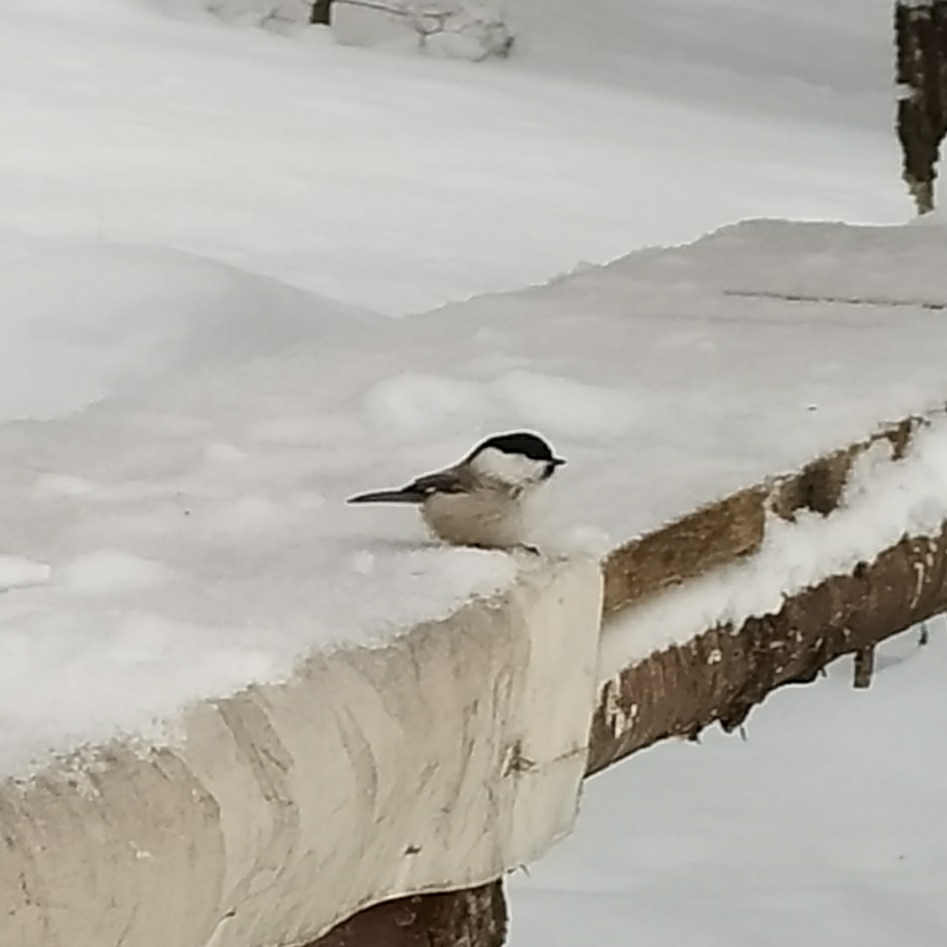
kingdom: Animalia
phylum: Chordata
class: Aves
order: Passeriformes
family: Paridae
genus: Poecile
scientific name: Poecile montanus
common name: Willow tit
